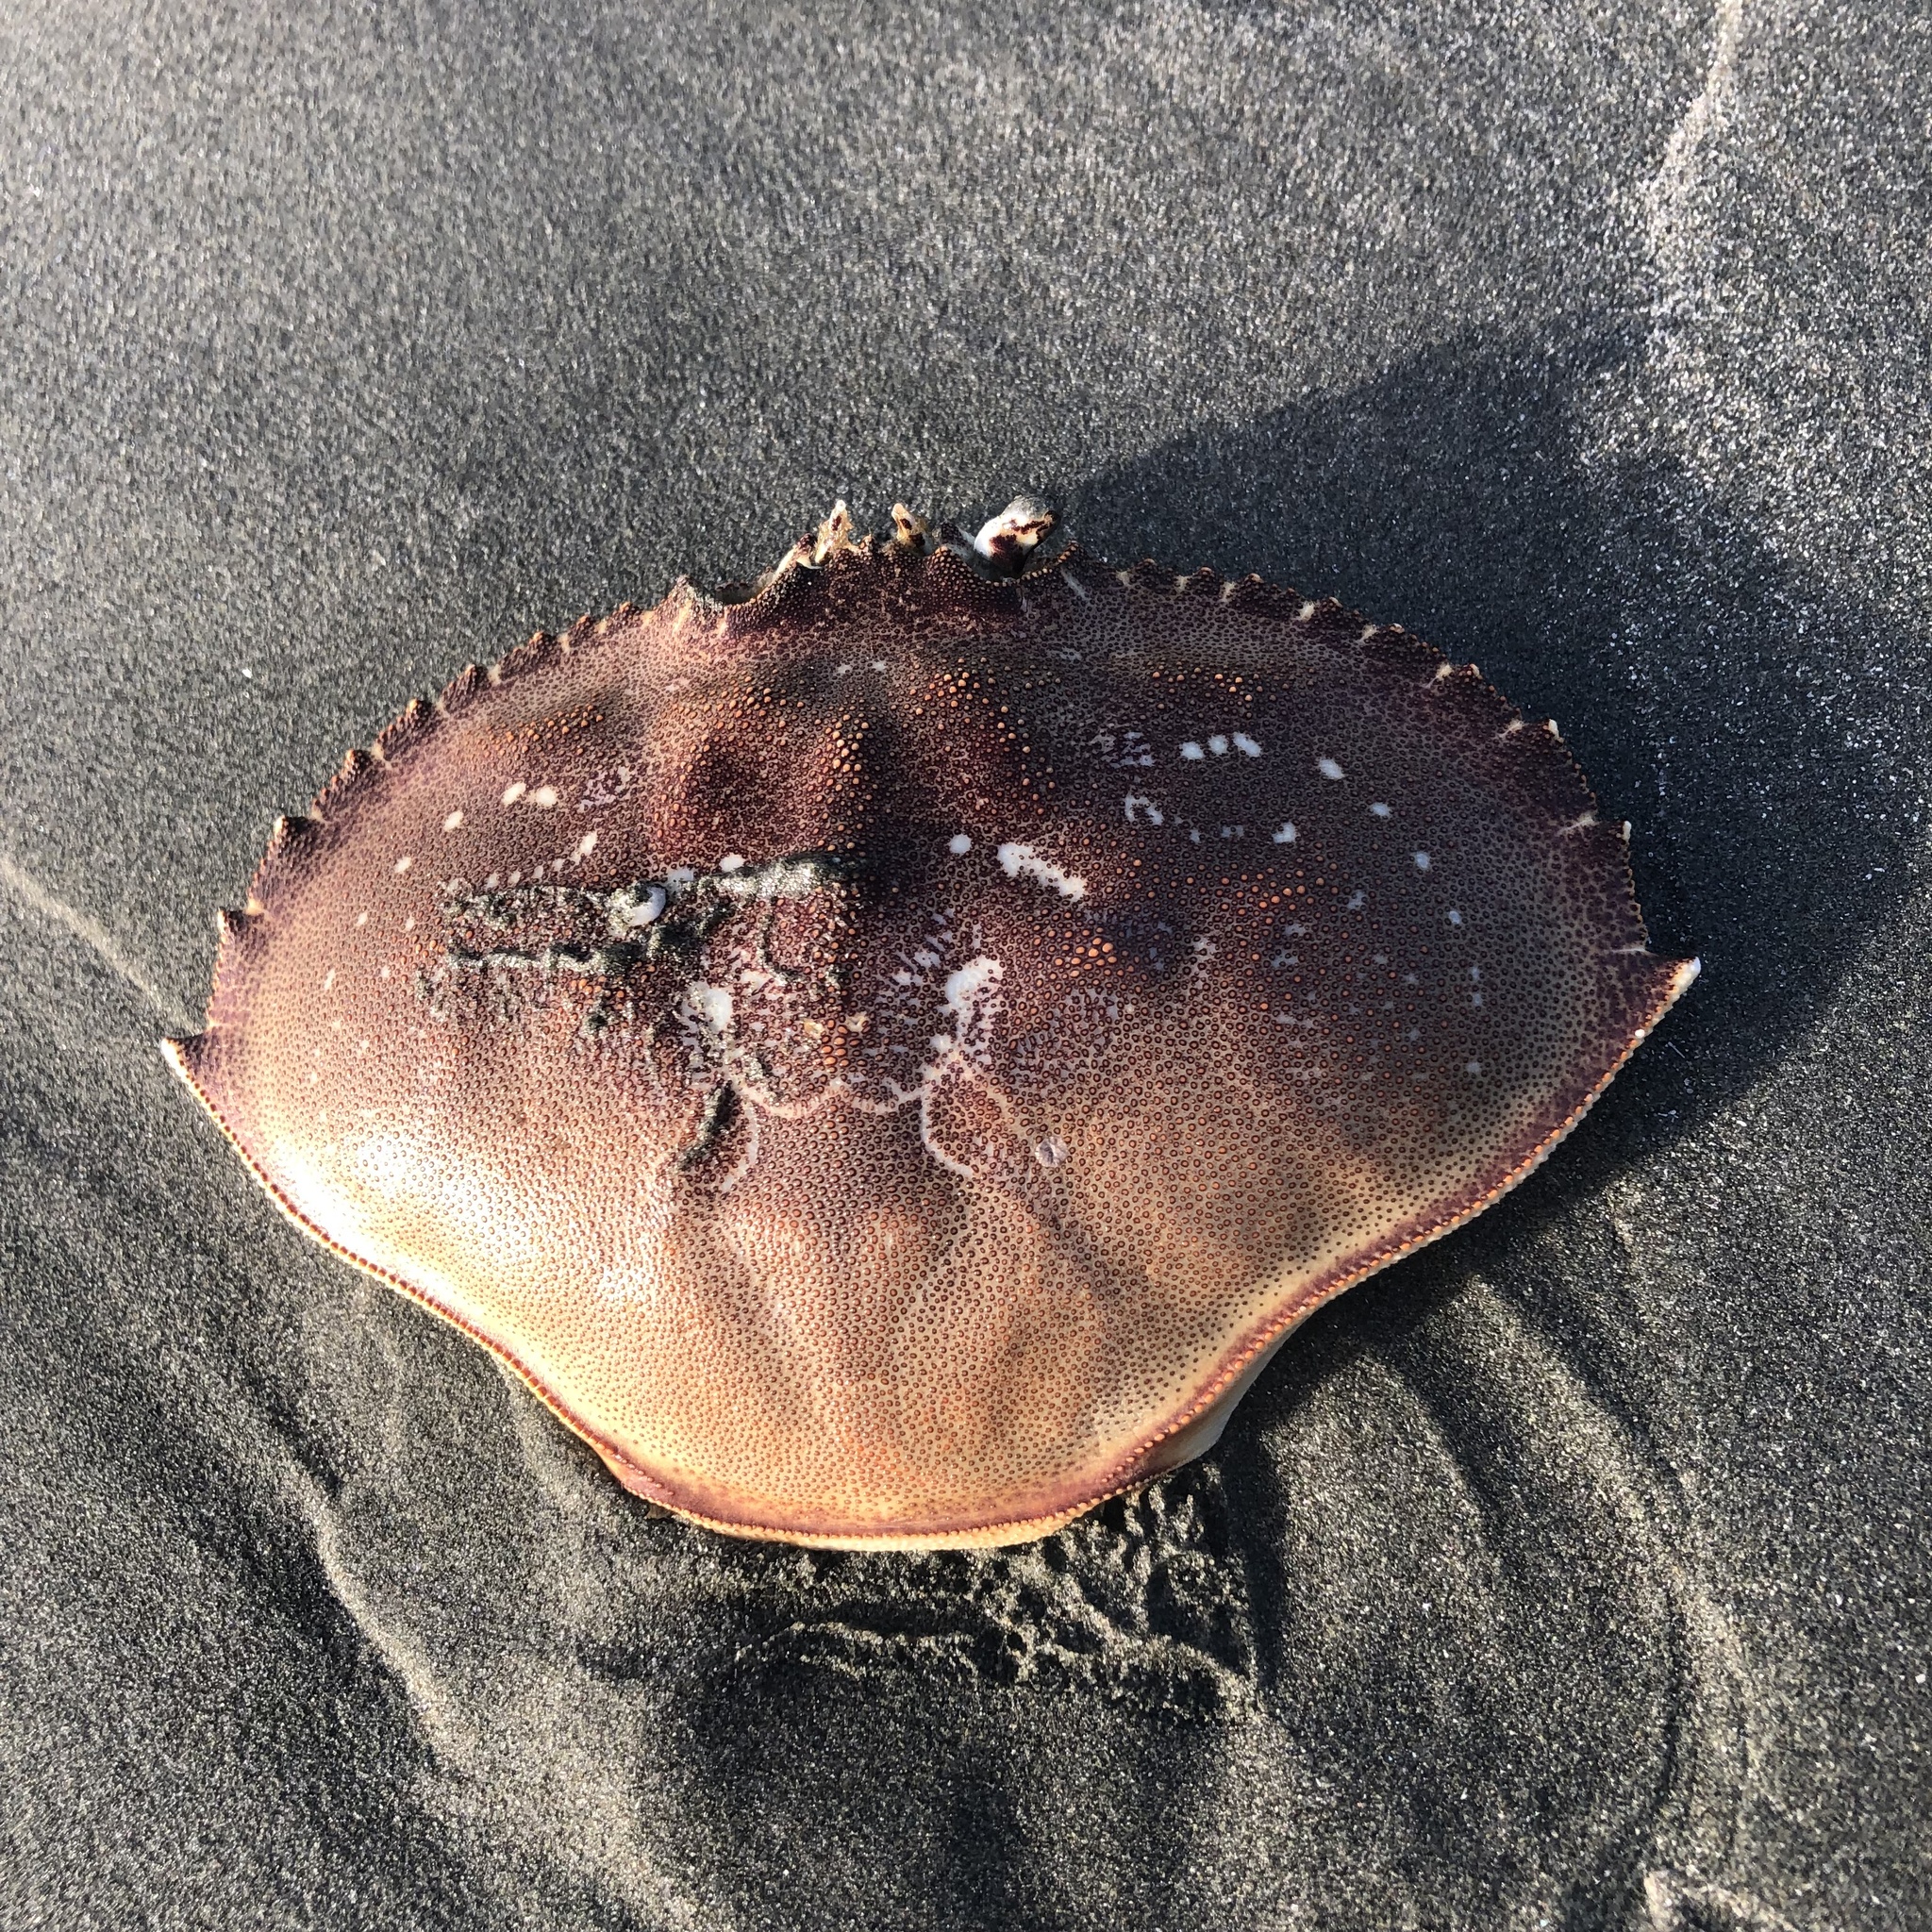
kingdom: Animalia
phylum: Arthropoda
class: Malacostraca
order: Decapoda
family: Cancridae
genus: Metacarcinus
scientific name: Metacarcinus magister
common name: Californian crab
